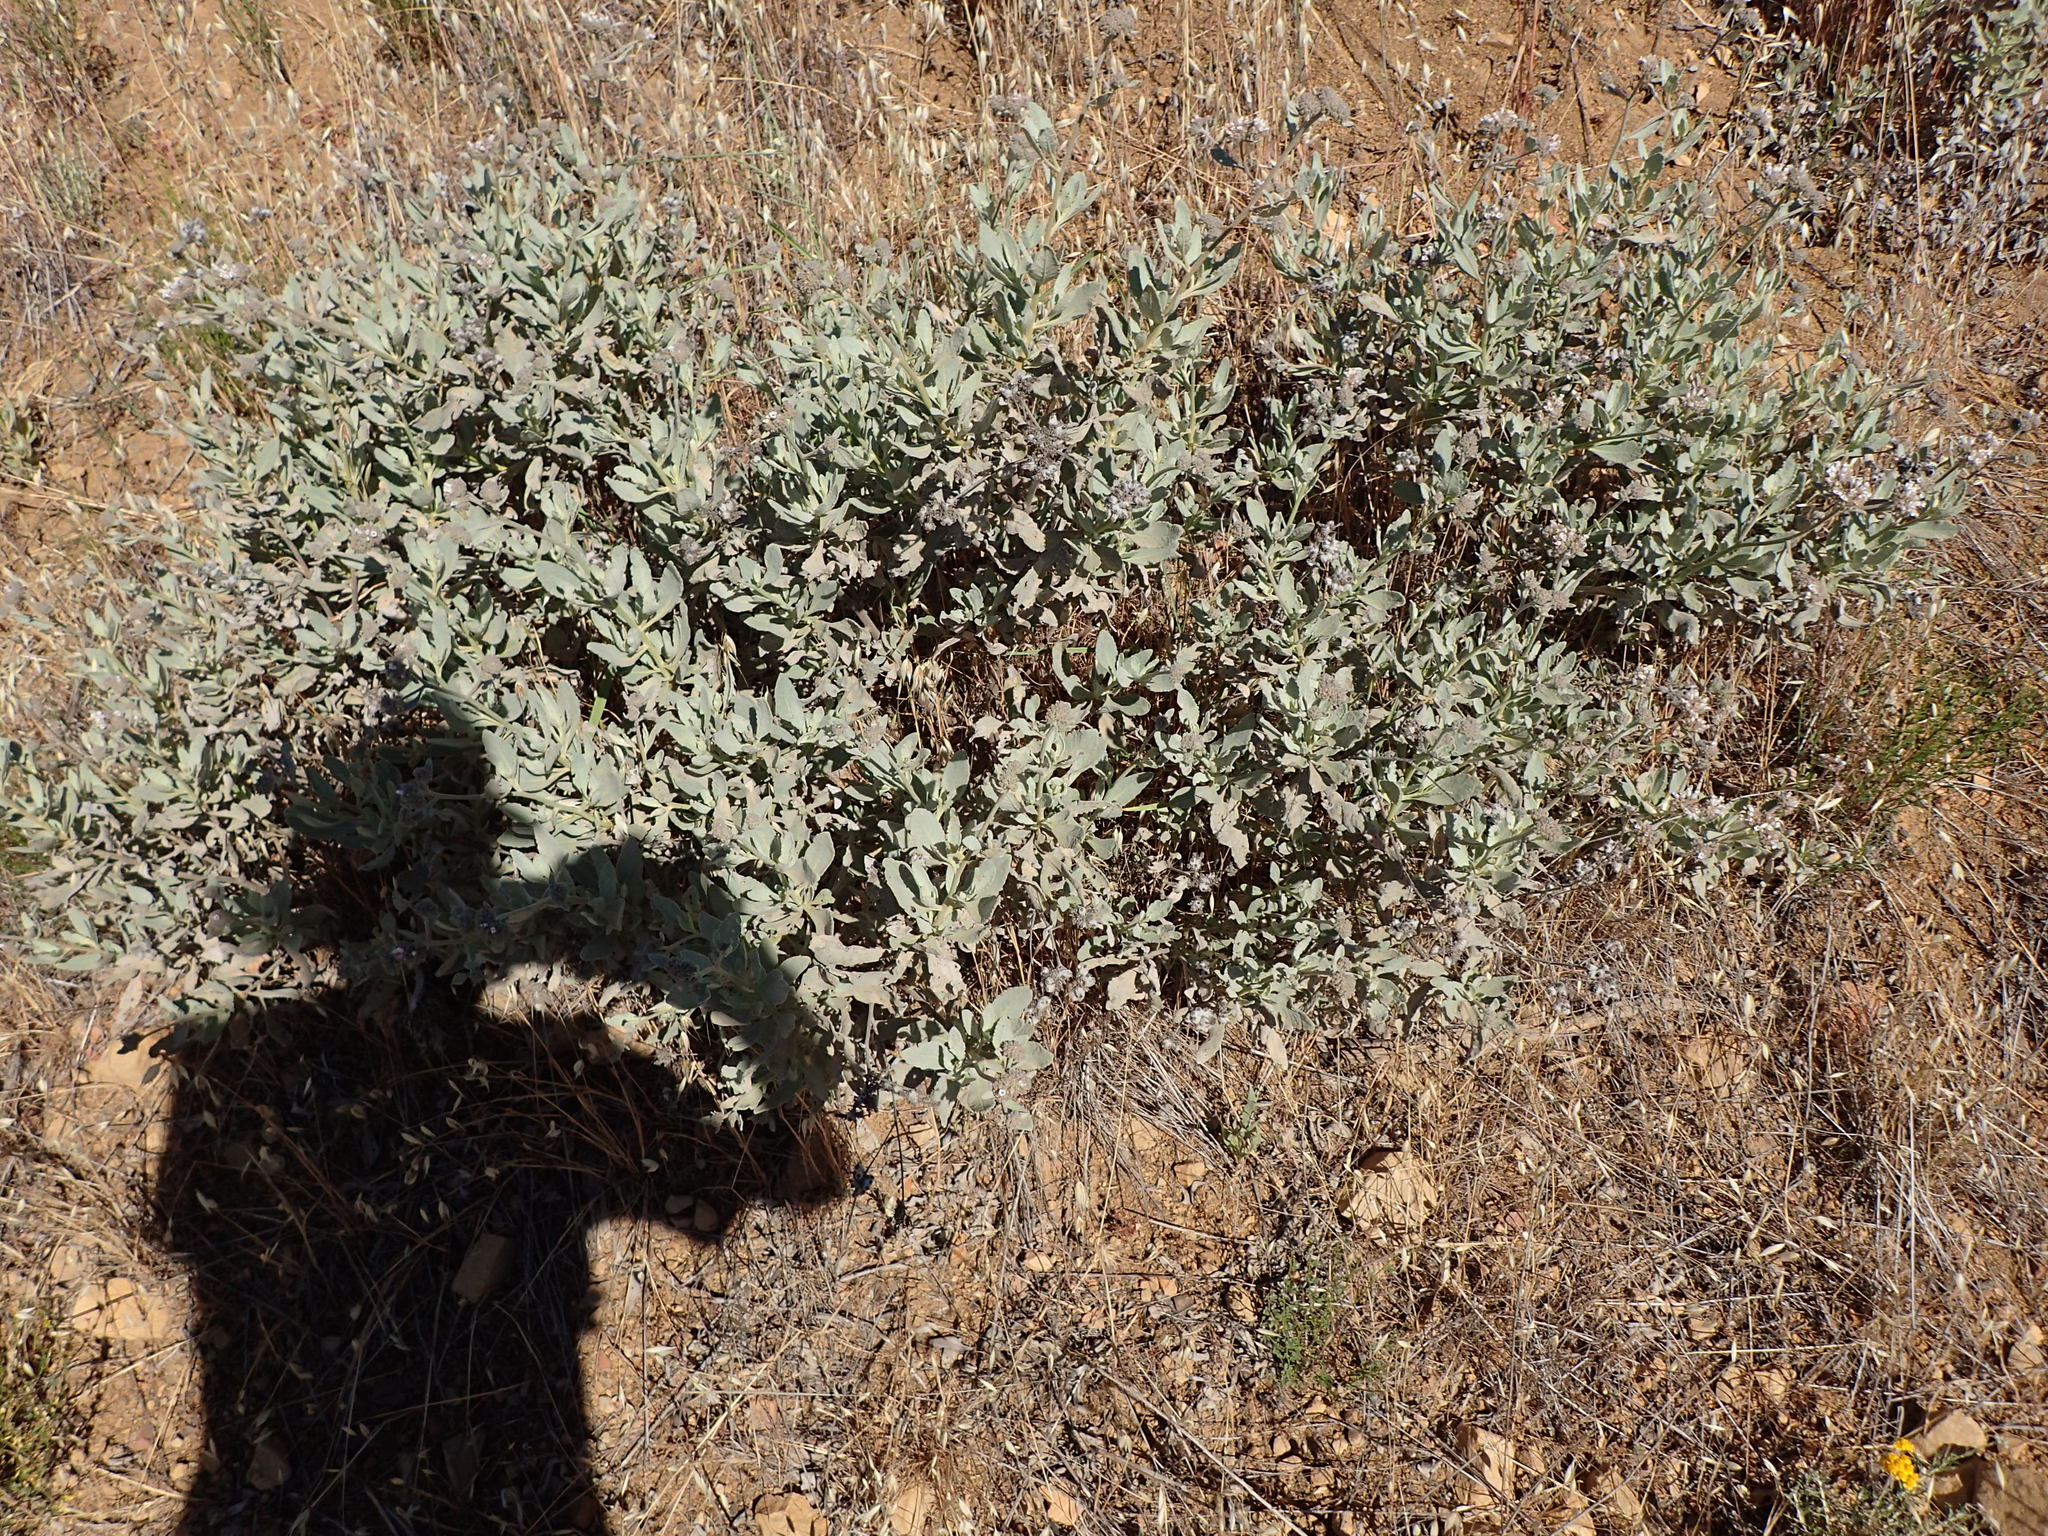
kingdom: Plantae
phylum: Tracheophyta
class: Magnoliopsida
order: Boraginales
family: Namaceae
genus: Eriodictyon
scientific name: Eriodictyon traskiae
